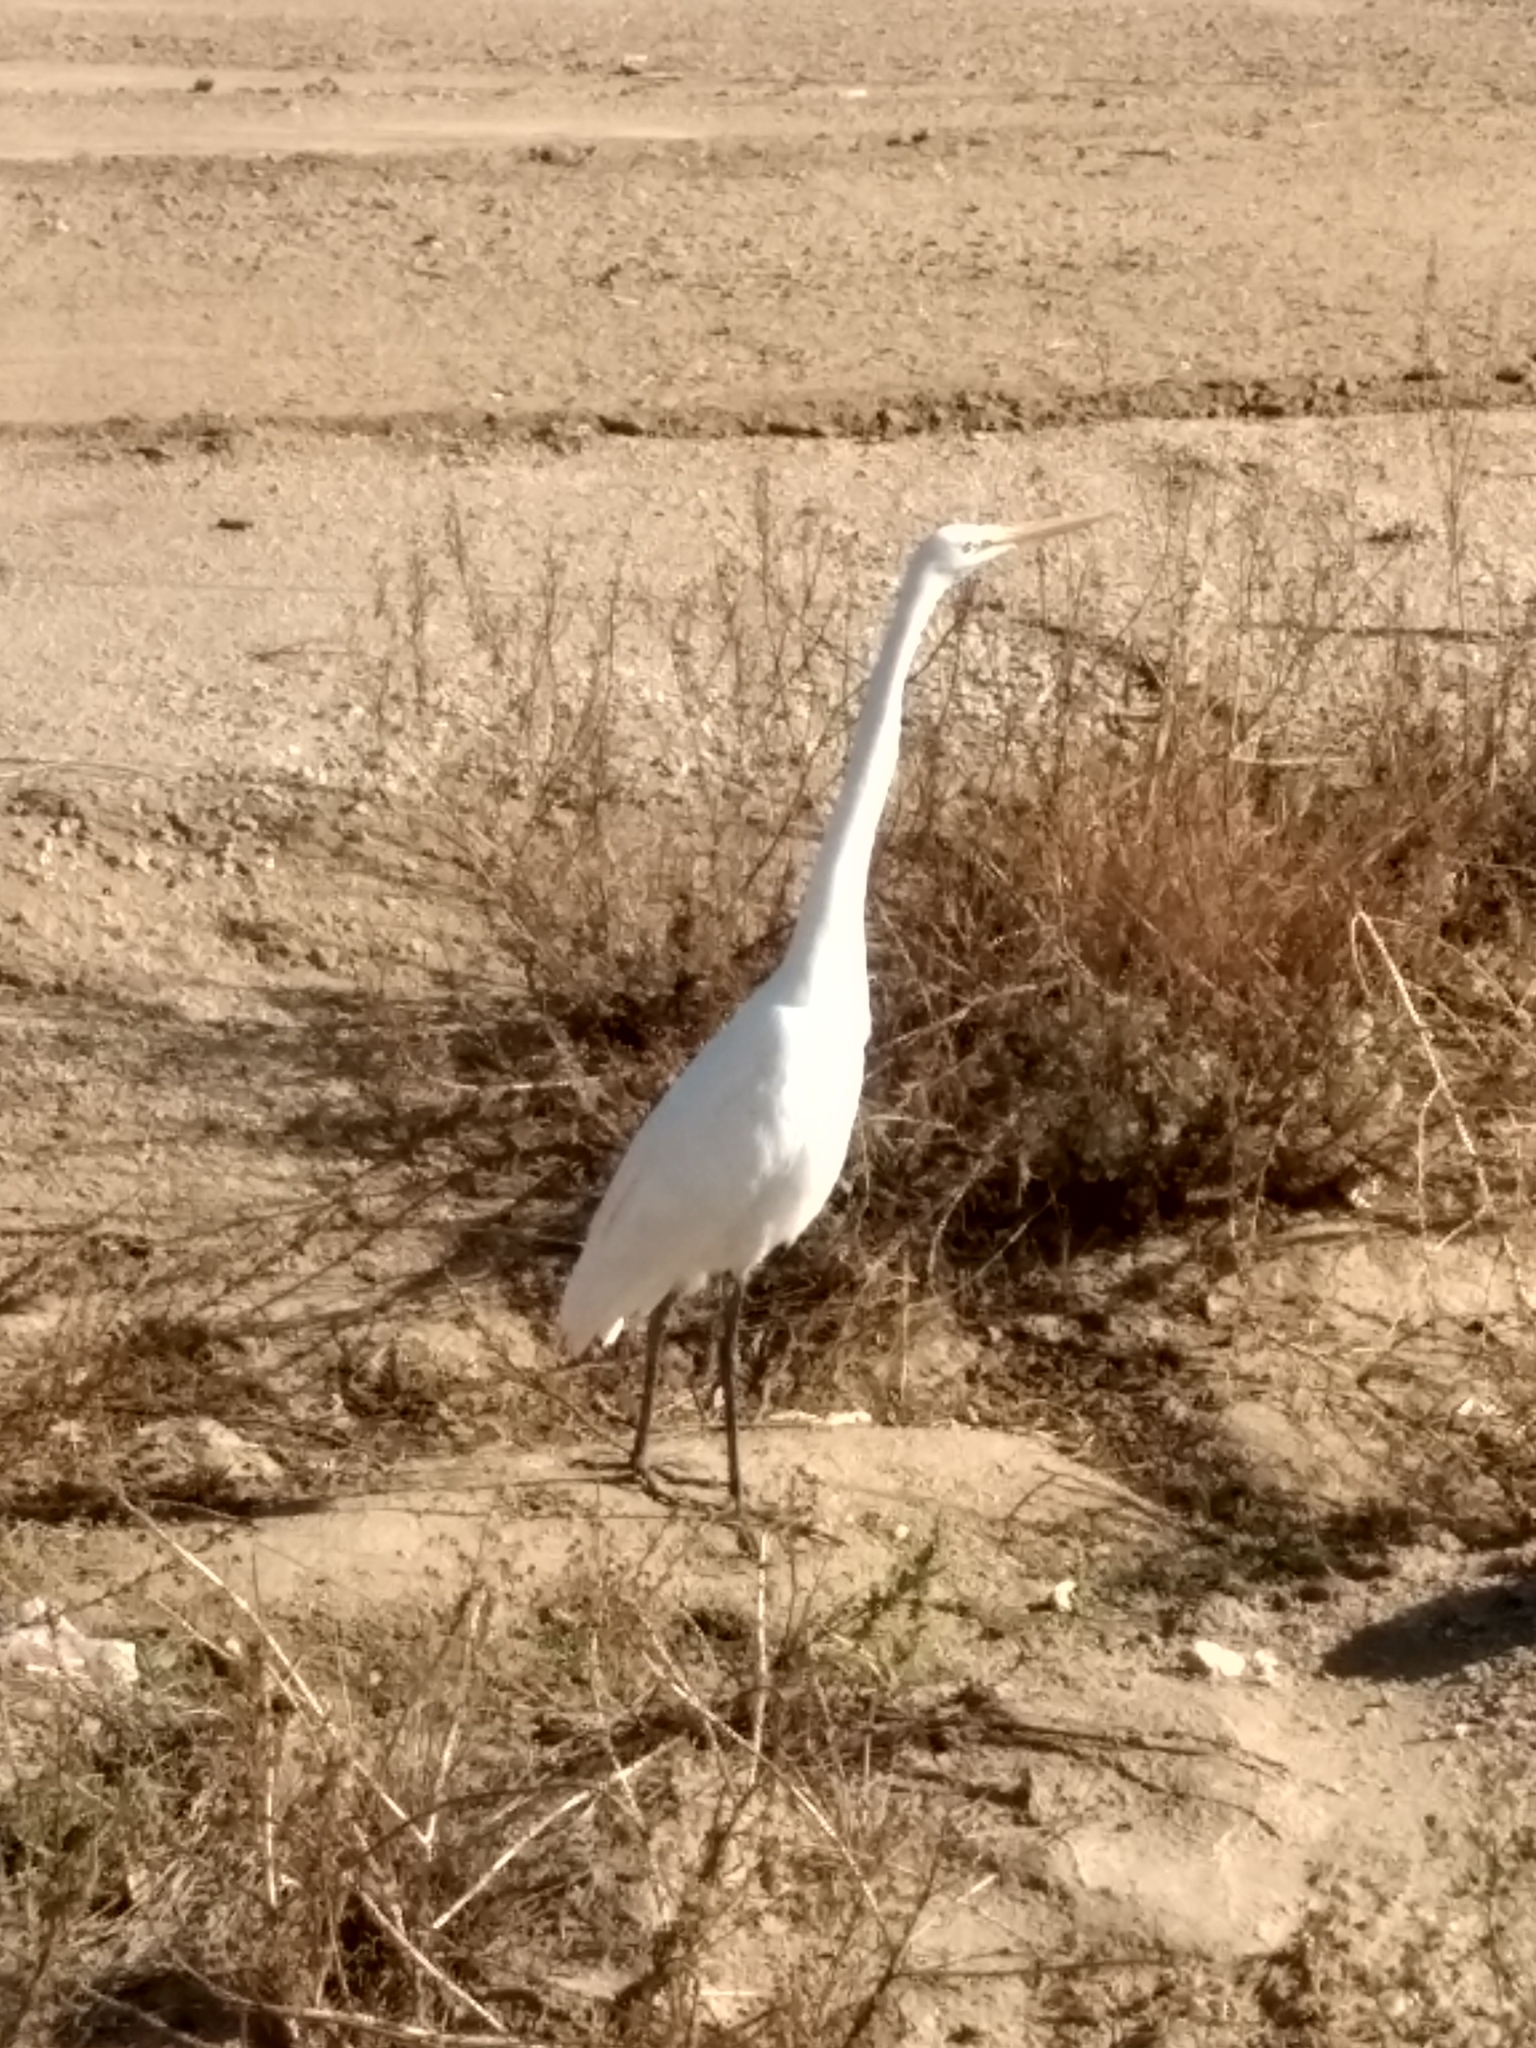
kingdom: Animalia
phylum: Chordata
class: Aves
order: Pelecaniformes
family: Ardeidae
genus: Ardea
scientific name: Ardea alba
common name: Great egret
